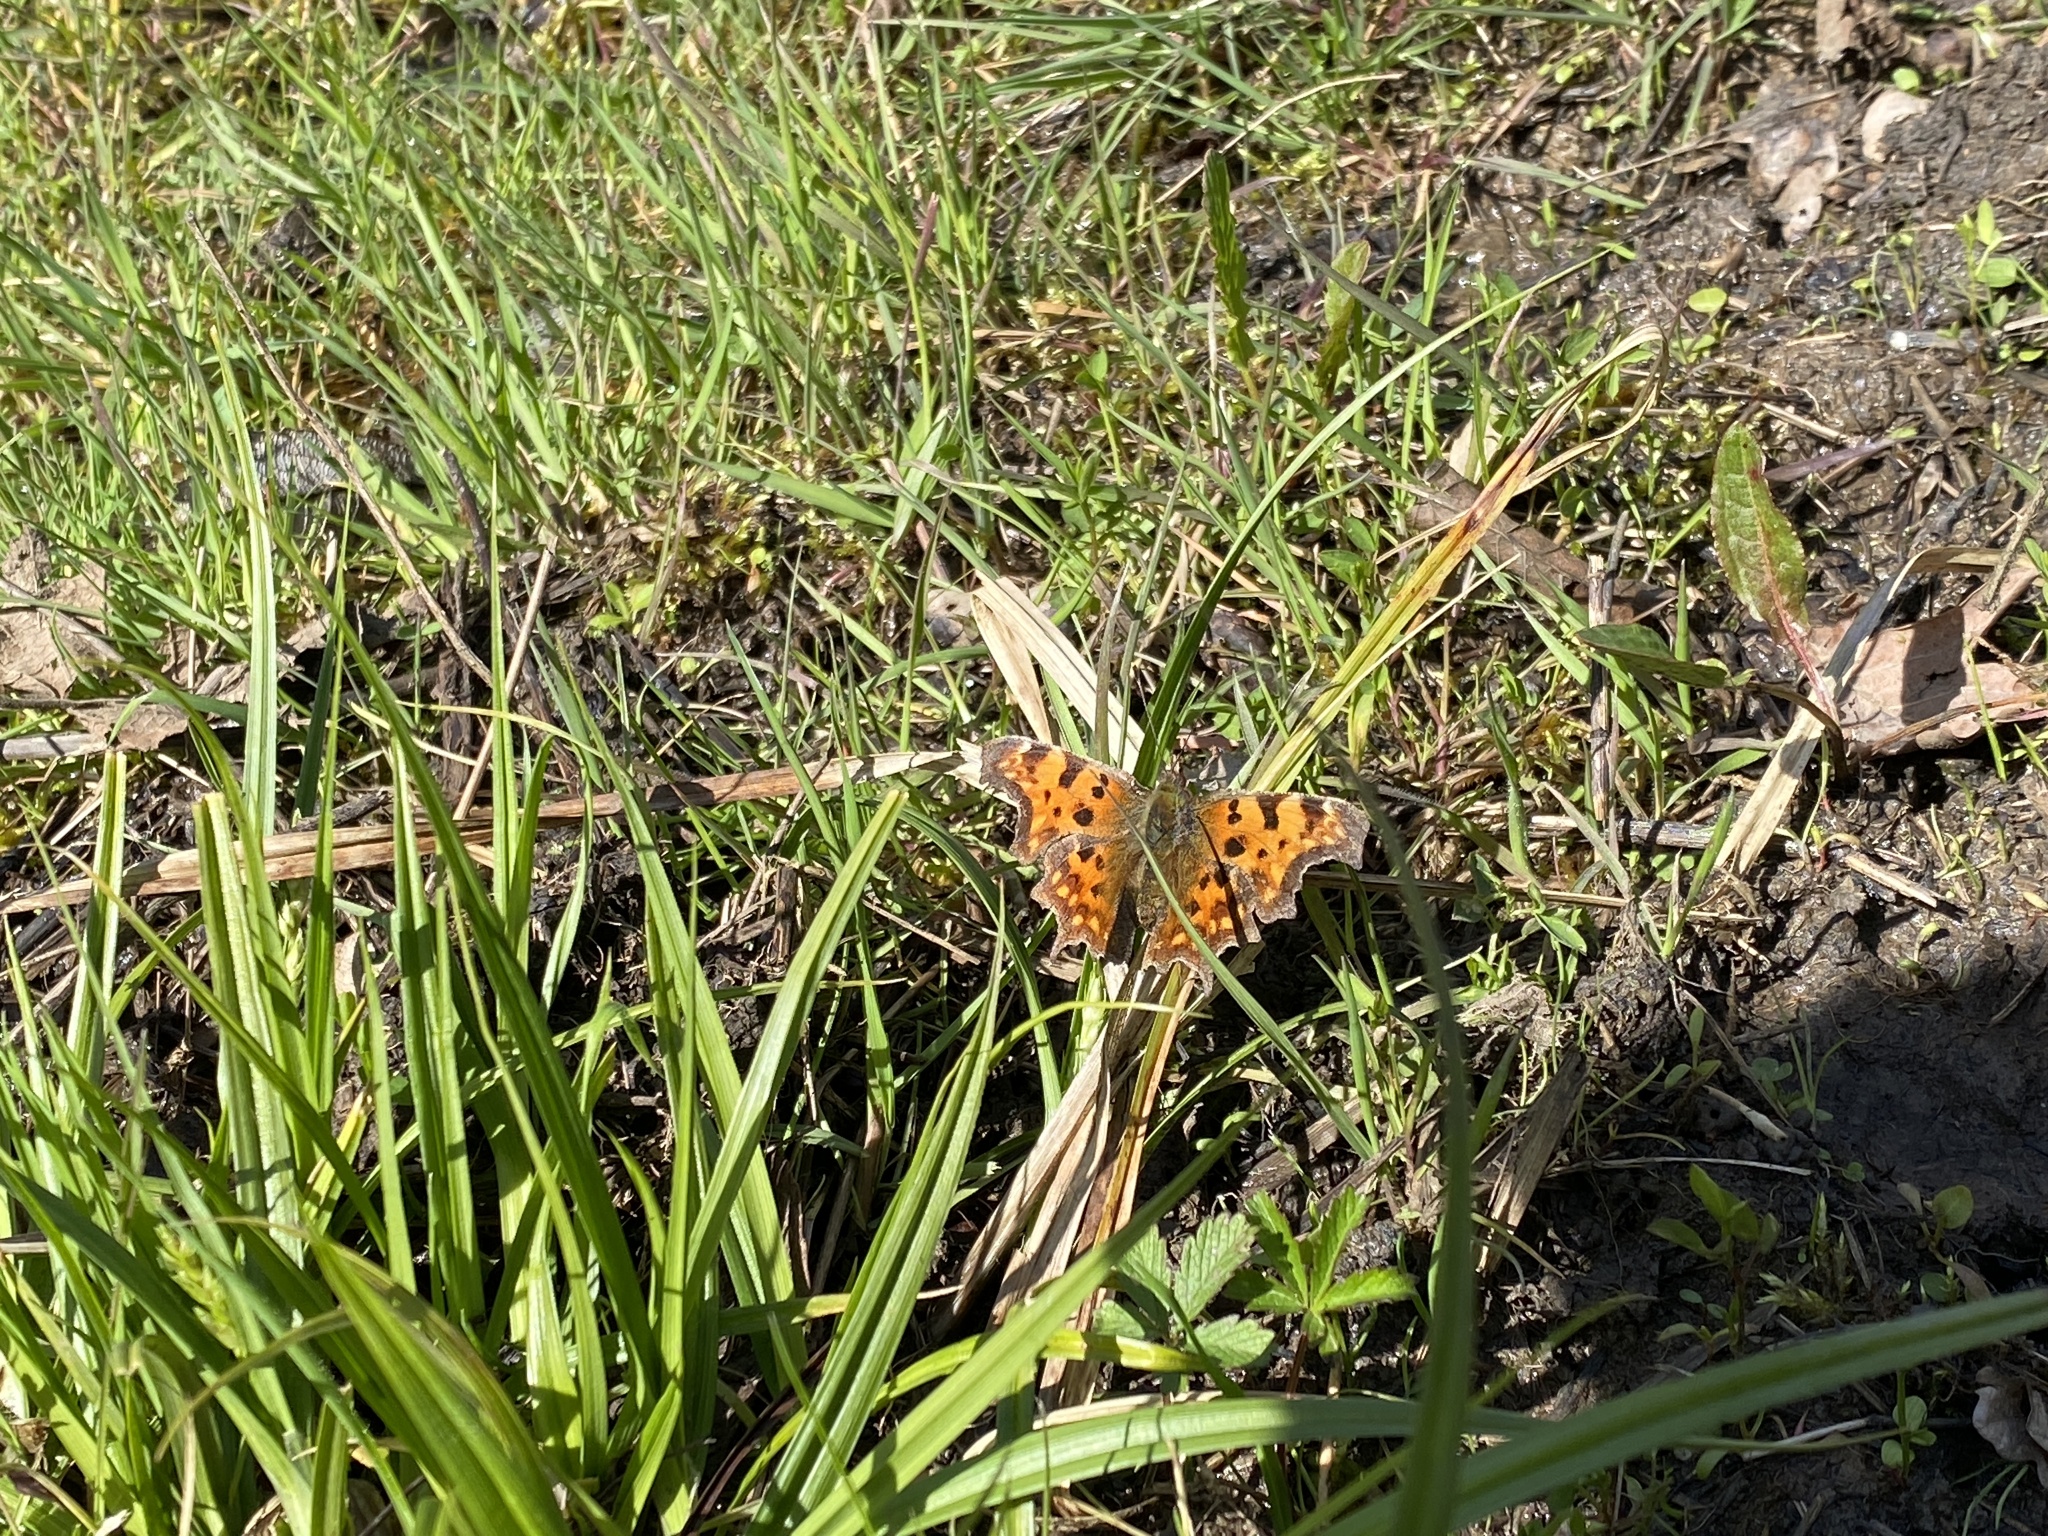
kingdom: Animalia
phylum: Arthropoda
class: Insecta
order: Lepidoptera
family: Nymphalidae
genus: Polygonia
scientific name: Polygonia c-album
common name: Comma
